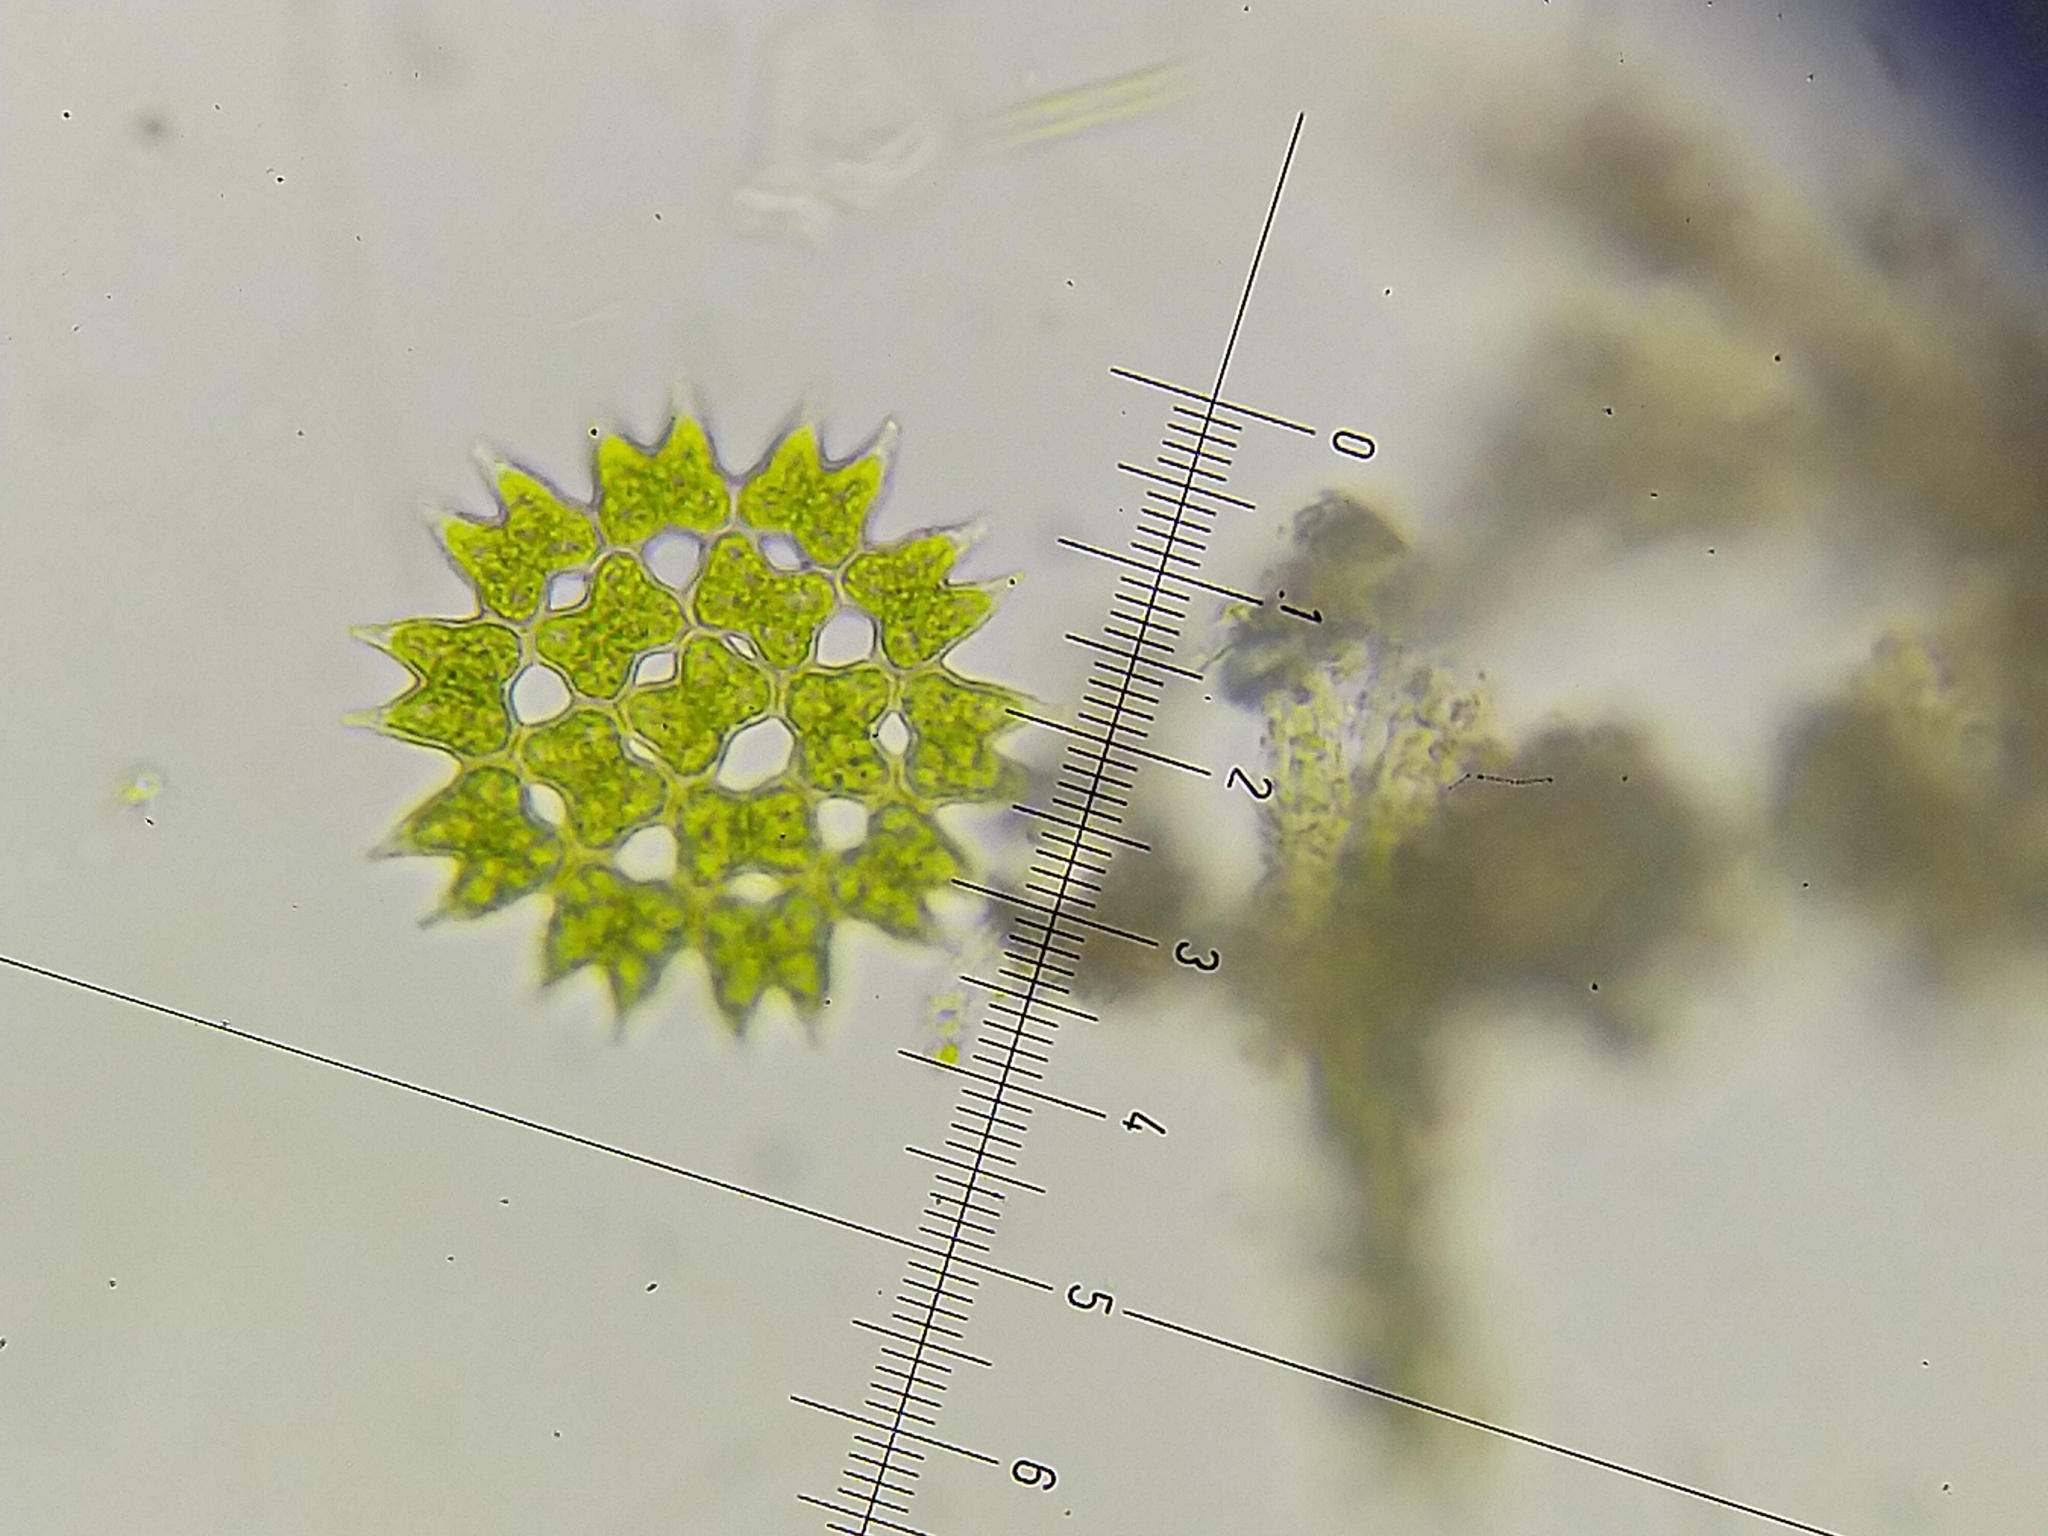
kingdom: Plantae
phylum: Chlorophyta
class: Chlorophyceae
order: Sphaeropleales
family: Hydrodictyaceae
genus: Pediastrum
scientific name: Pediastrum duplex
